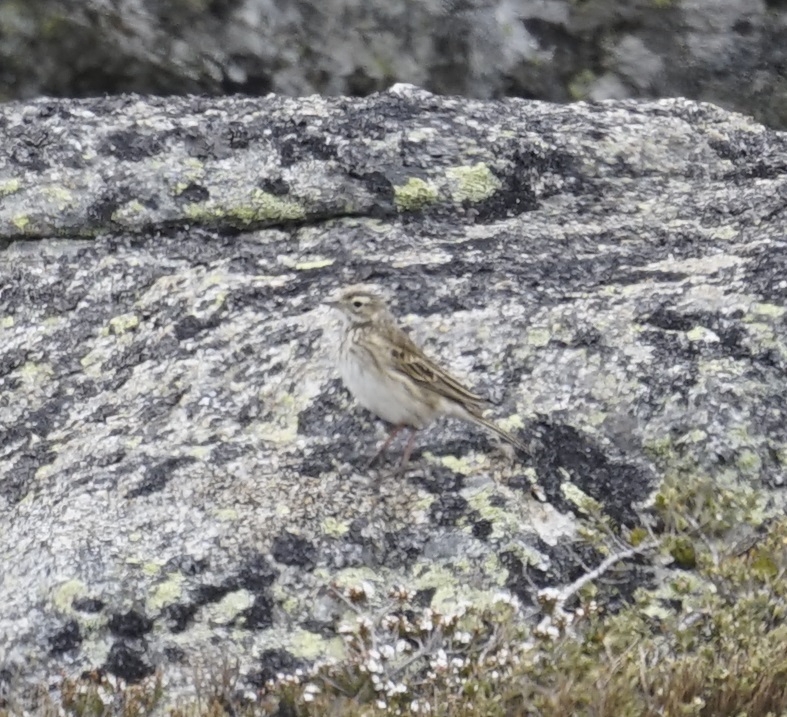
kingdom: Animalia
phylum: Chordata
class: Aves
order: Passeriformes
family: Motacillidae
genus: Anthus
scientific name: Anthus australis
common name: Australian pipit
